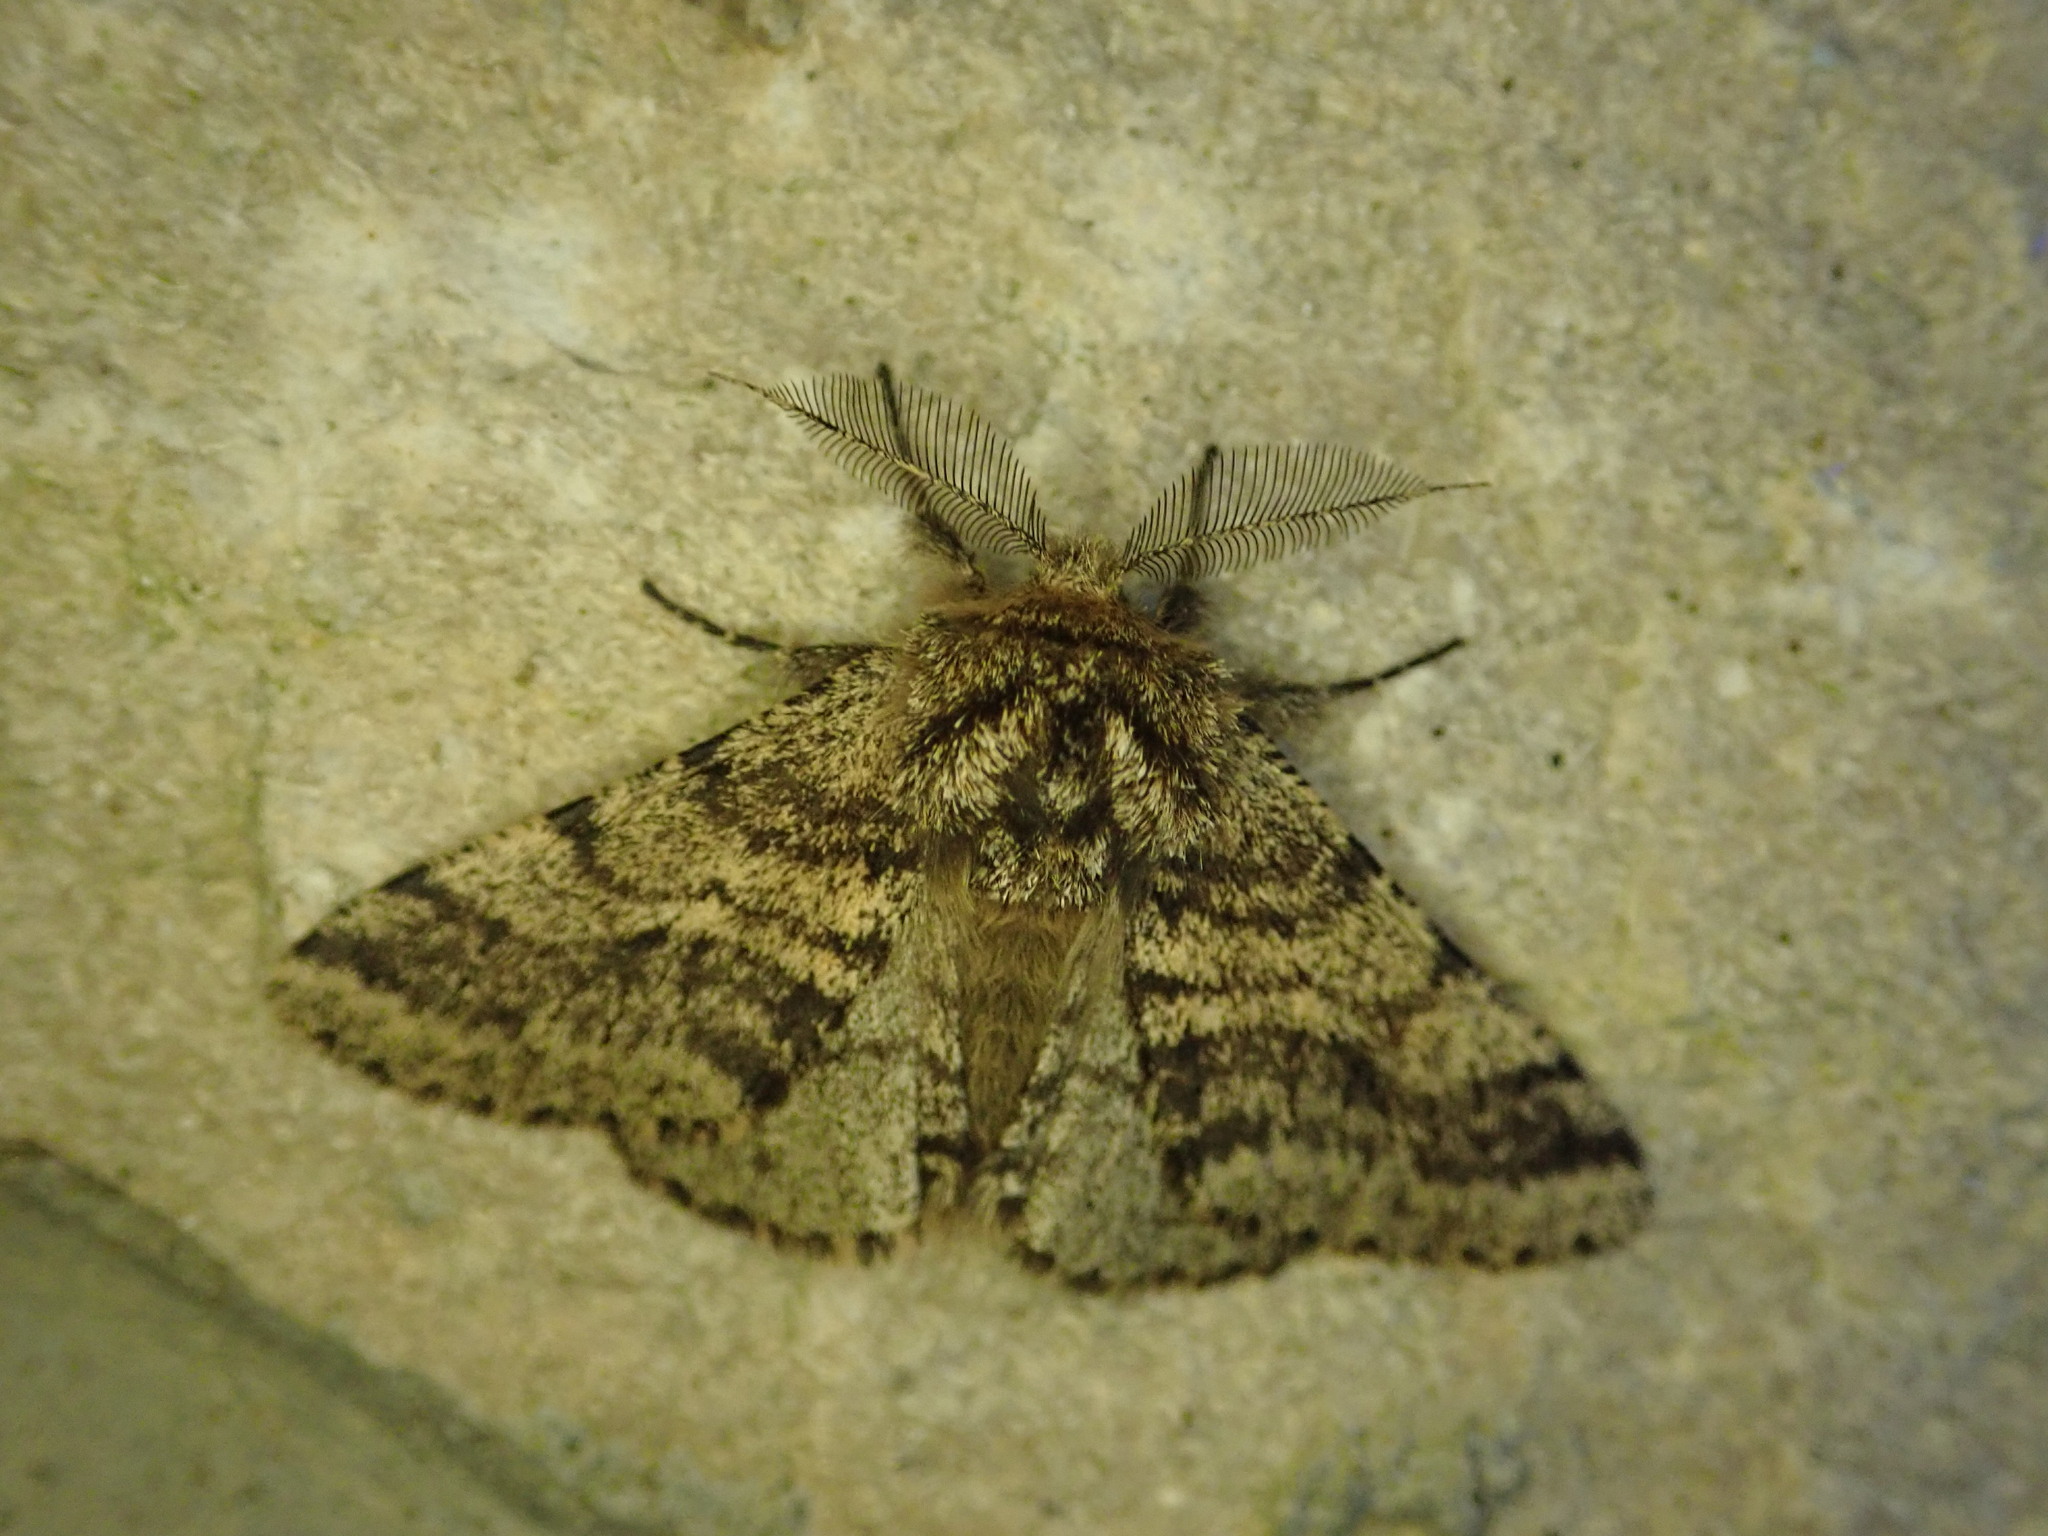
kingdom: Animalia
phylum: Arthropoda
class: Insecta
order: Lepidoptera
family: Geometridae
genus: Lycia
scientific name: Lycia hirtaria
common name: Brindled beauty
